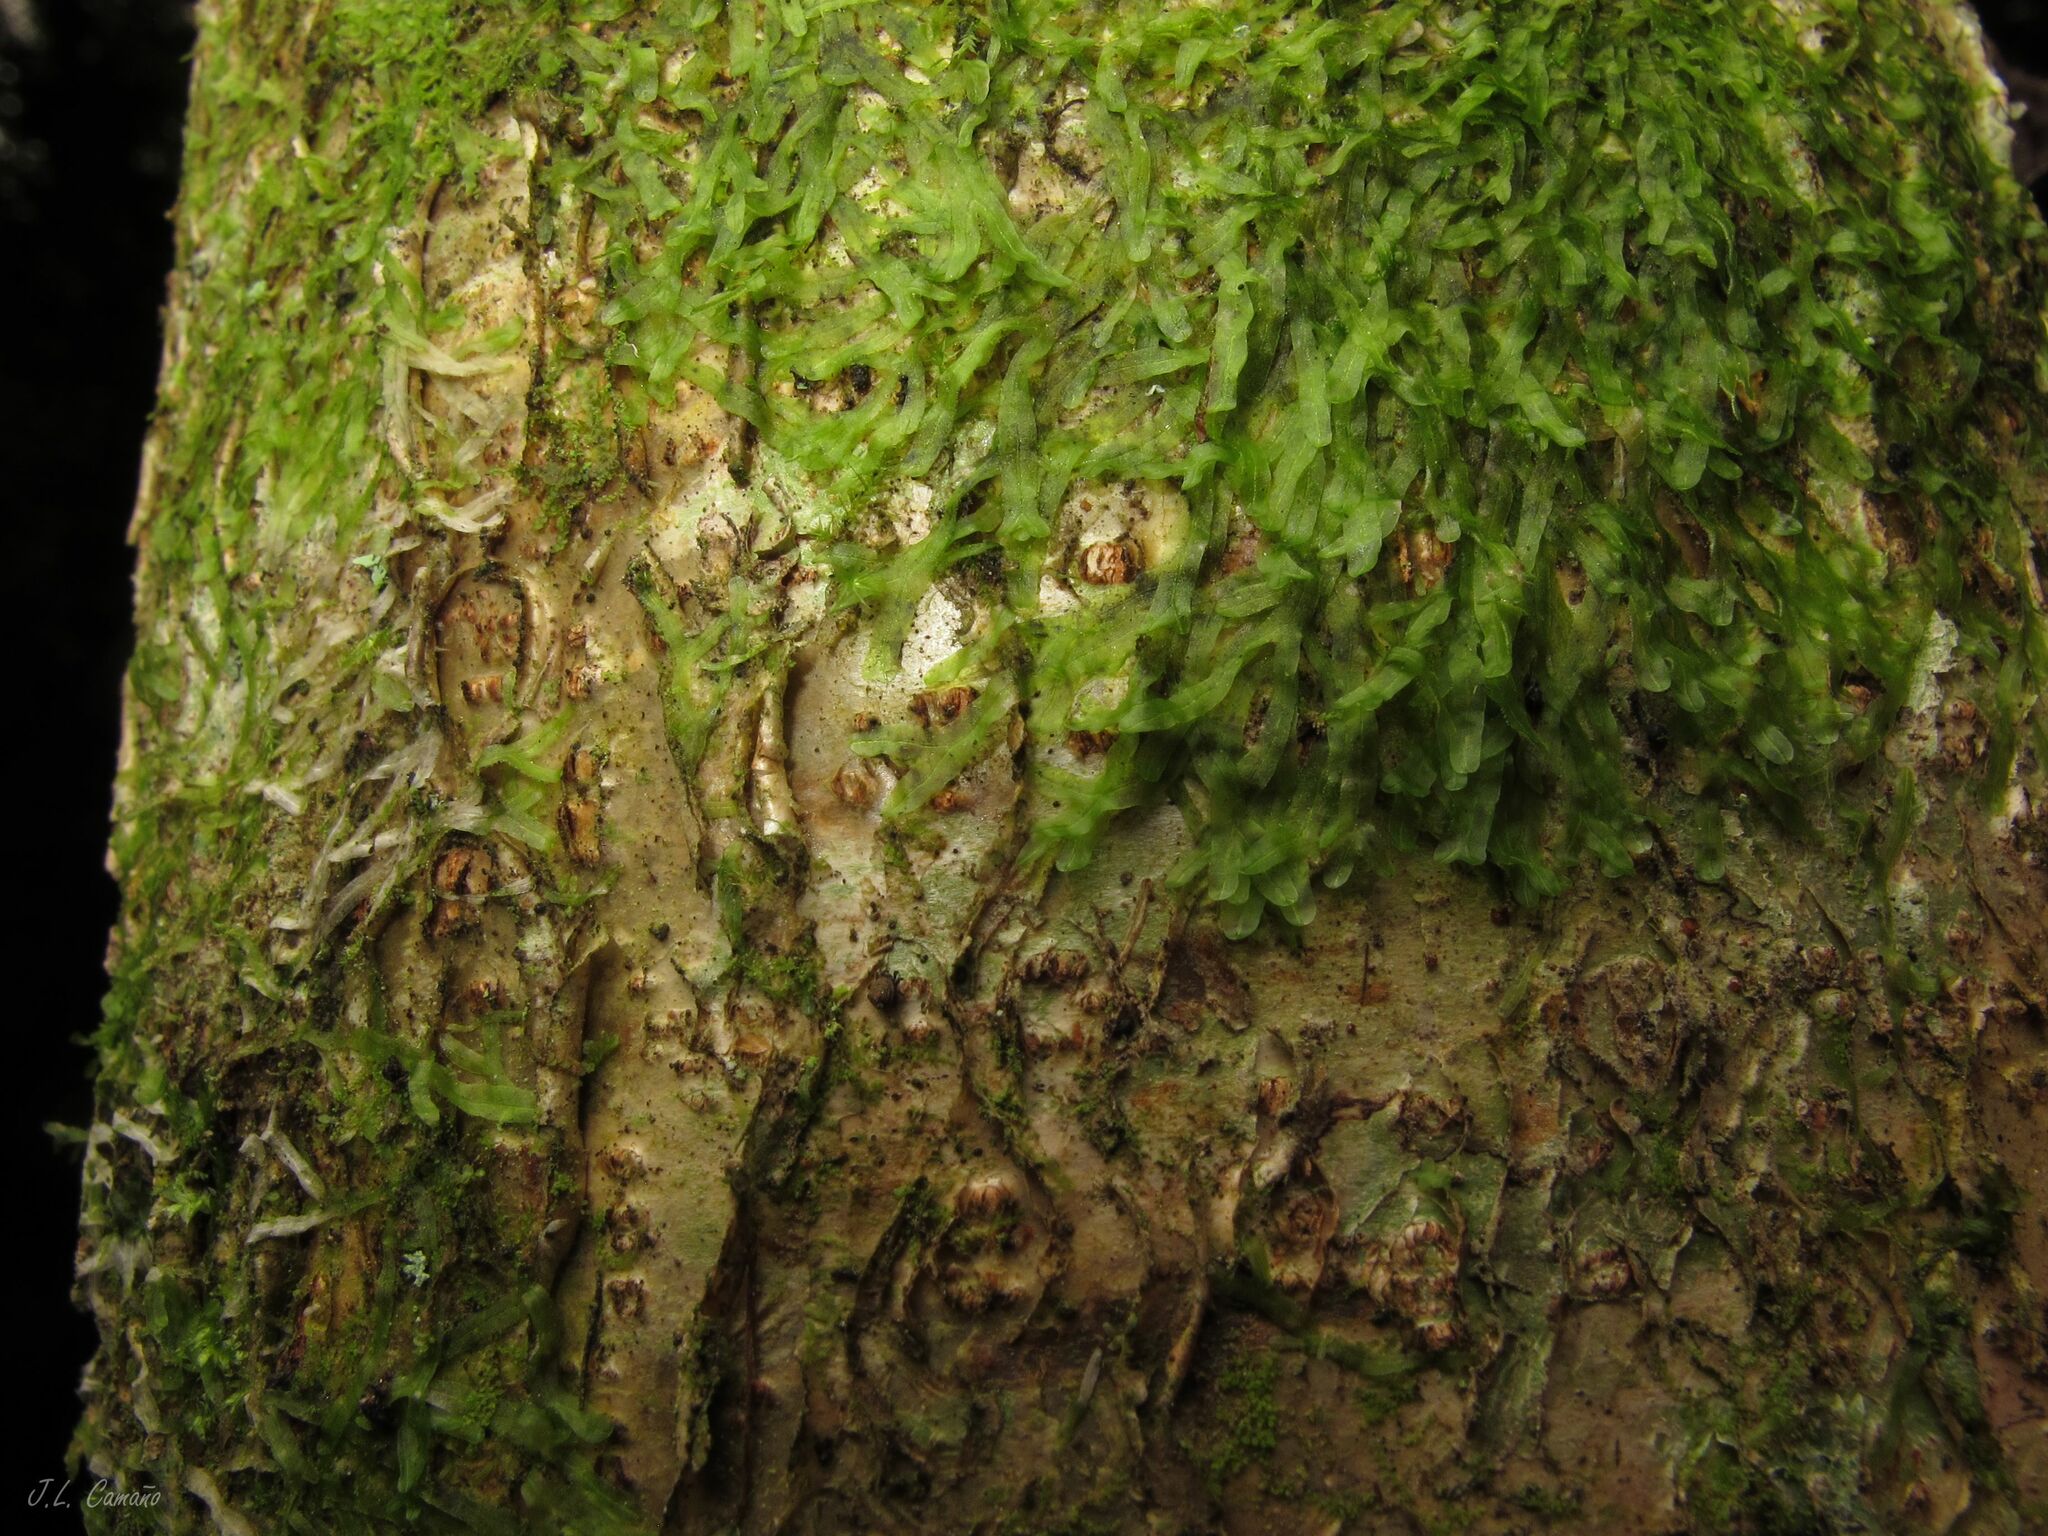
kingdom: Plantae
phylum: Marchantiophyta
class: Jungermanniopsida
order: Metzgeriales
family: Metzgeriaceae
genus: Metzgeria
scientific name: Metzgeria furcata
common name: Forked veilwort
